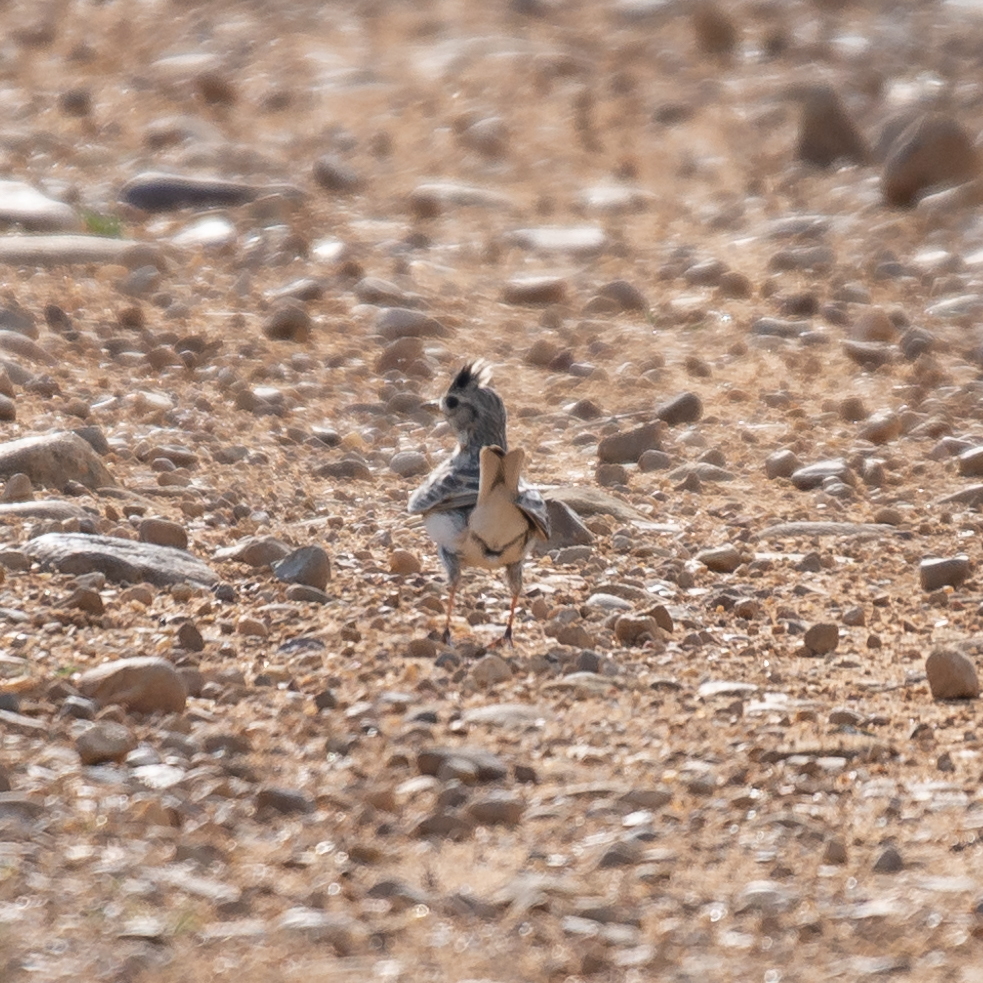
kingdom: Animalia
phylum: Chordata
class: Aves
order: Passeriformes
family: Alaudidae
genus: Alauda
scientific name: Alauda arvensis
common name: Eurasian skylark
